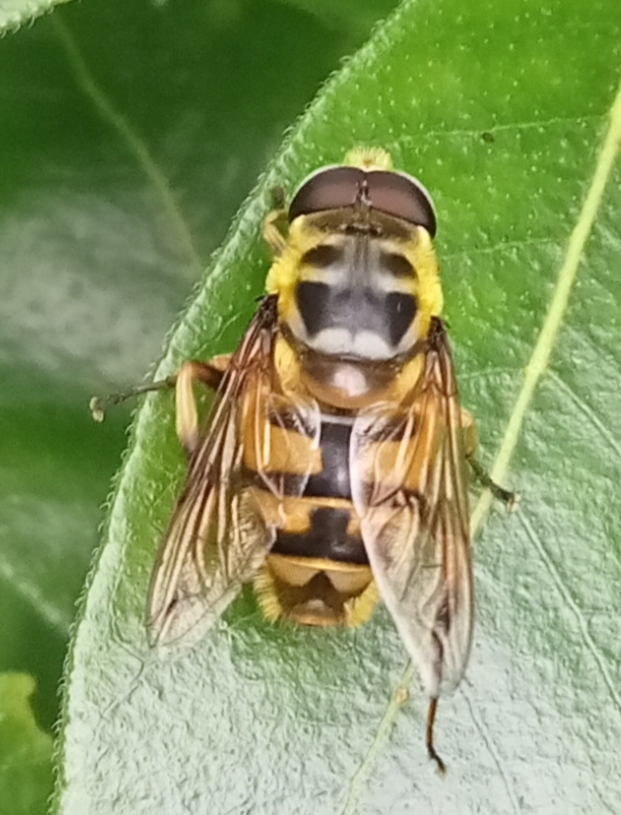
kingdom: Animalia
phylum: Arthropoda
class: Insecta
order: Diptera
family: Syrphidae
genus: Myathropa
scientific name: Myathropa florea
